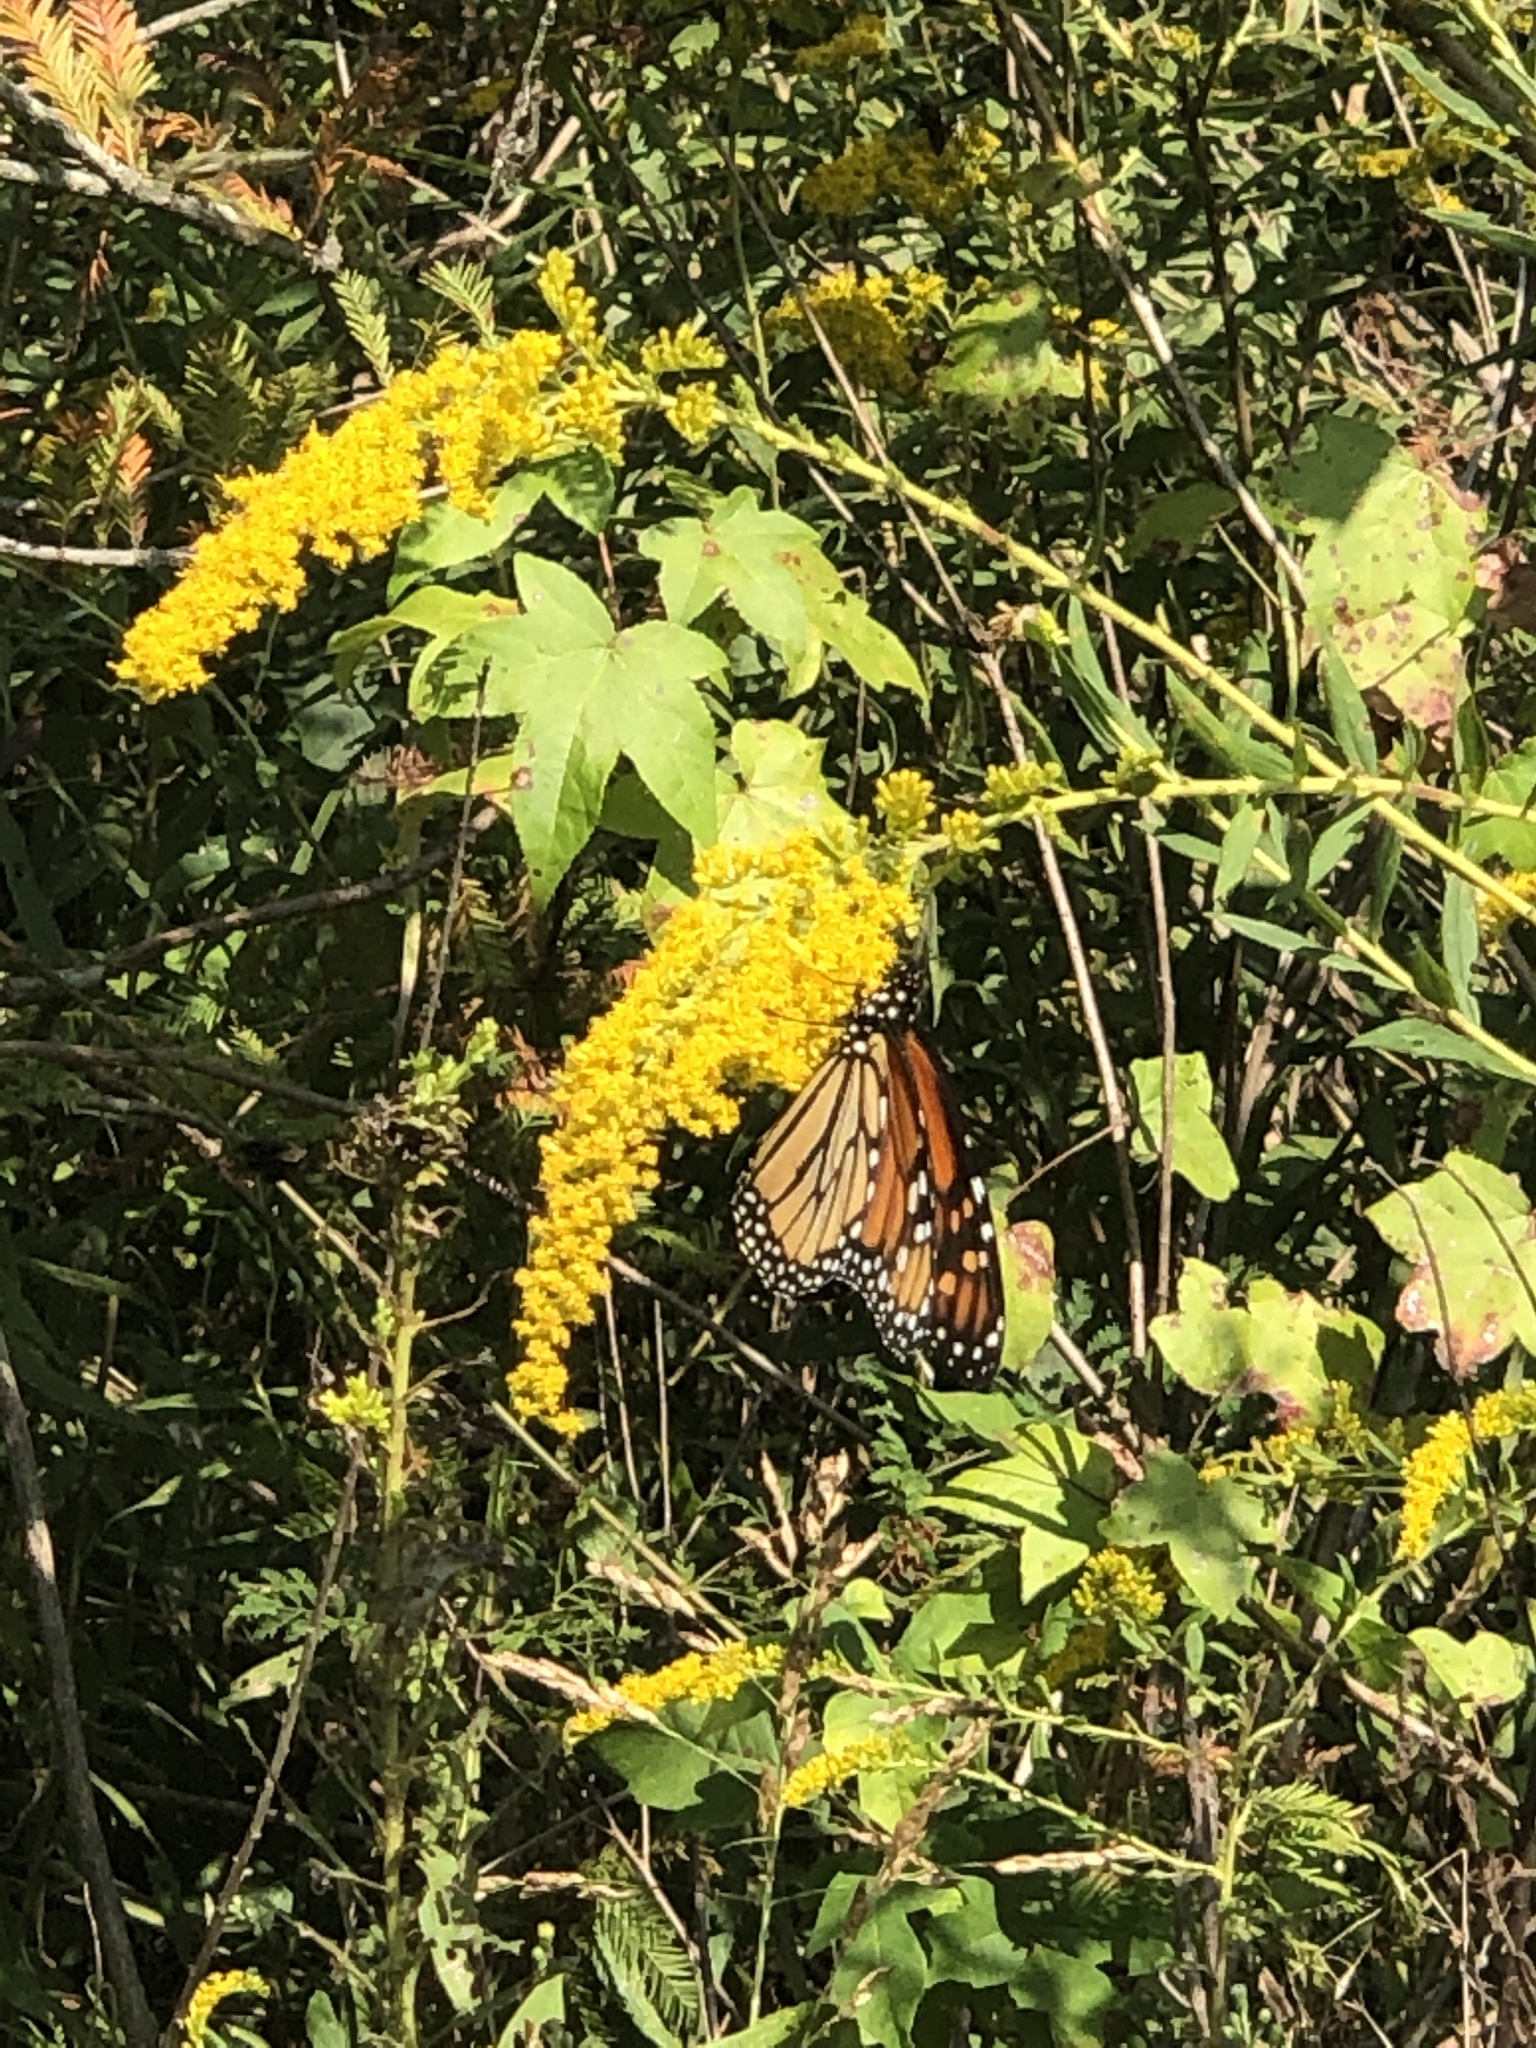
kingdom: Animalia
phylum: Arthropoda
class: Insecta
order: Lepidoptera
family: Nymphalidae
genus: Danaus
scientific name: Danaus plexippus
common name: Monarch
